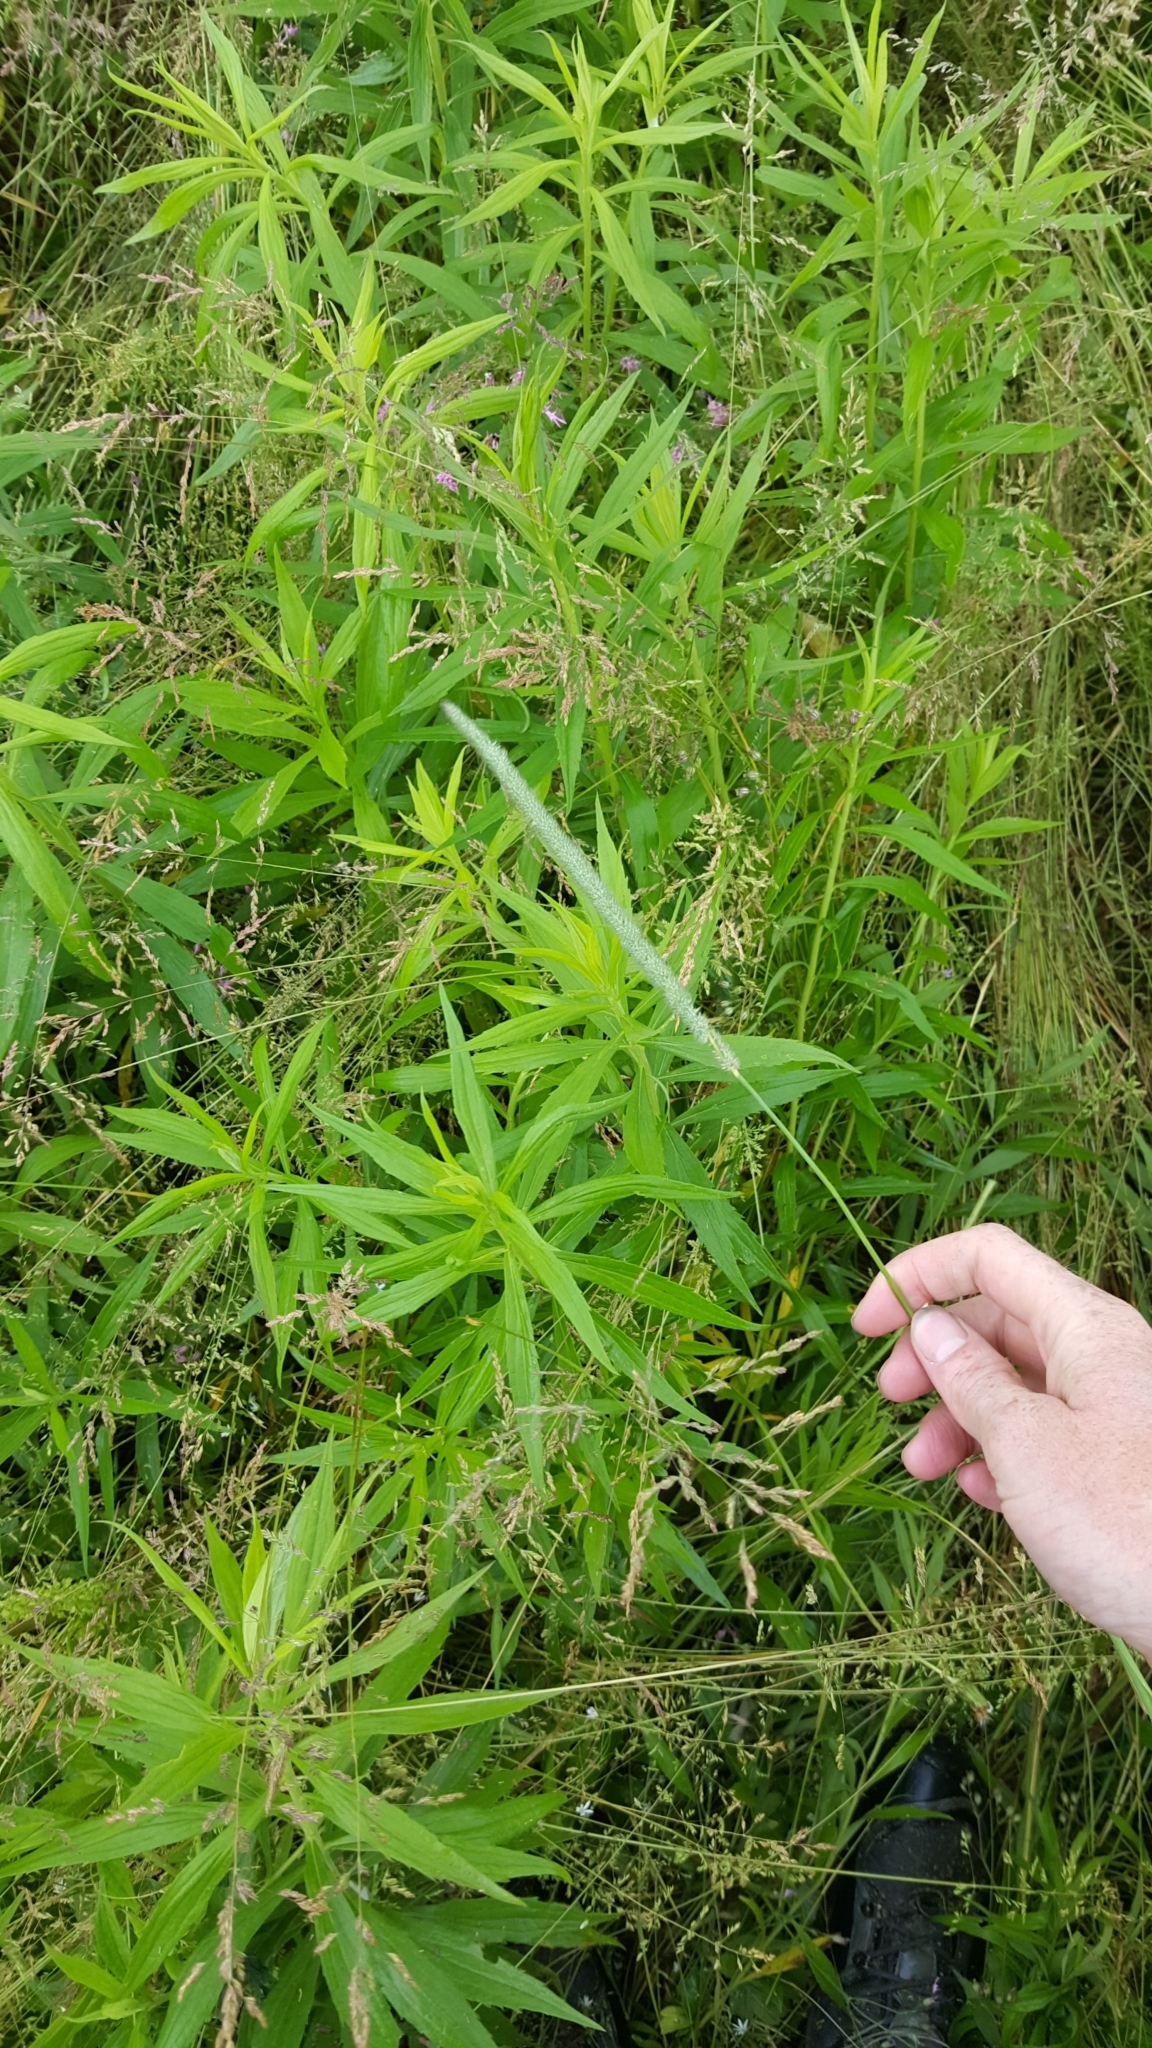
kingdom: Plantae
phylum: Tracheophyta
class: Liliopsida
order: Poales
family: Poaceae
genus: Phleum
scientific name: Phleum pratense
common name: Timothy grass
